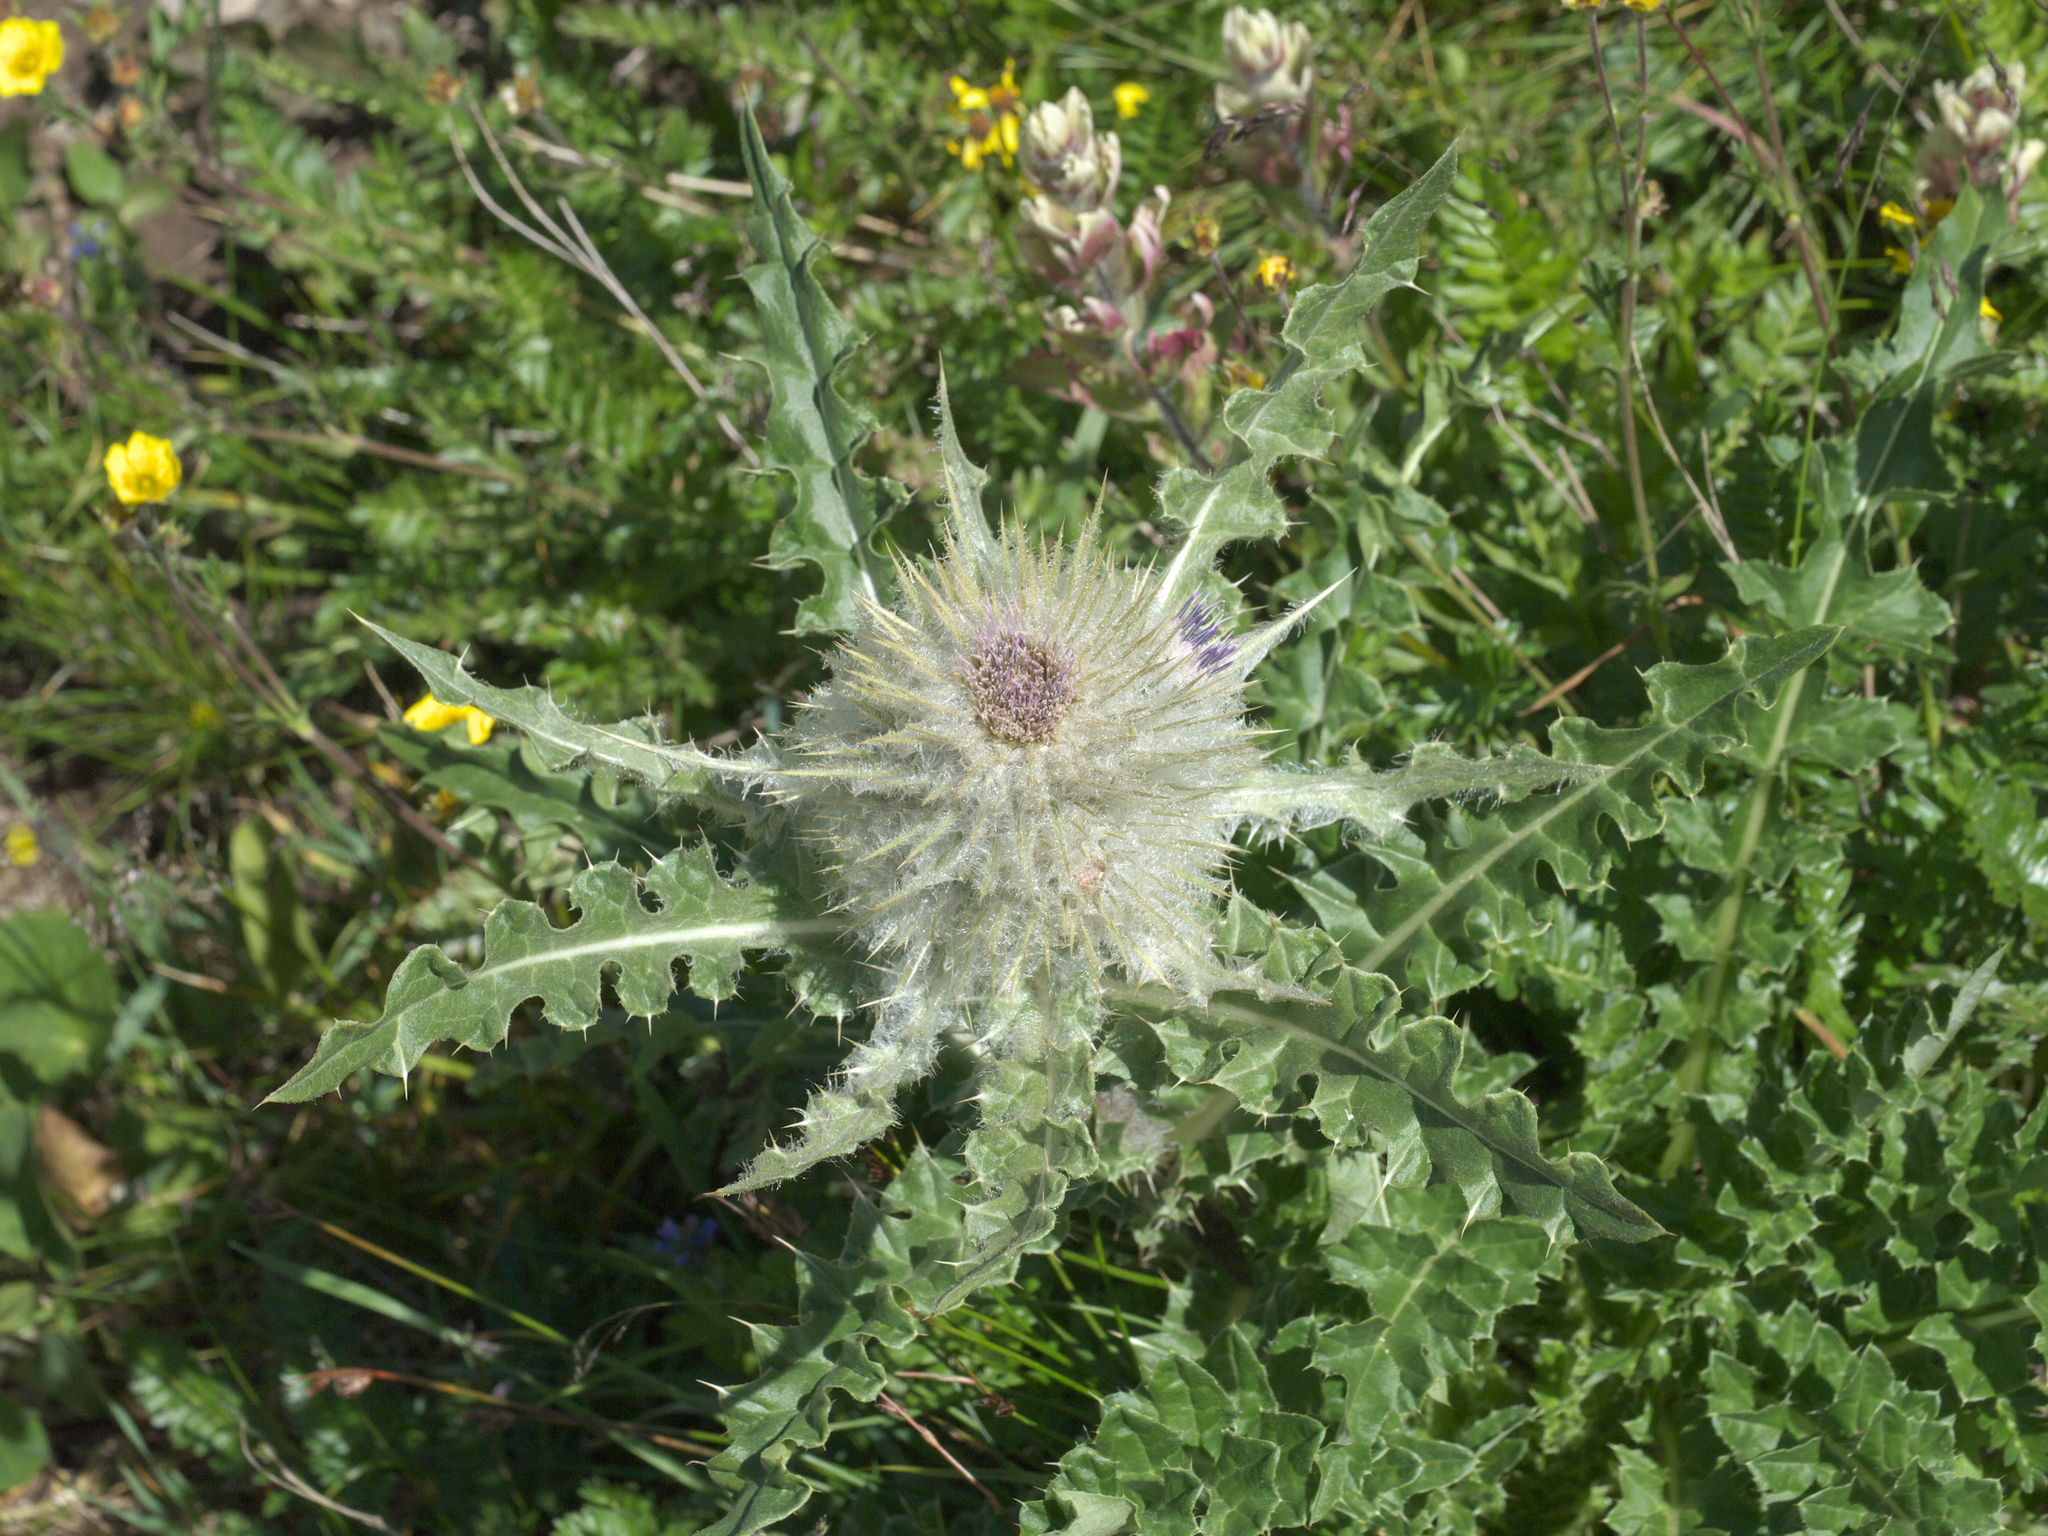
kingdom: Plantae
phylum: Tracheophyta
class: Magnoliopsida
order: Asterales
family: Asteraceae
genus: Cirsium
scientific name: Cirsium hesperium
